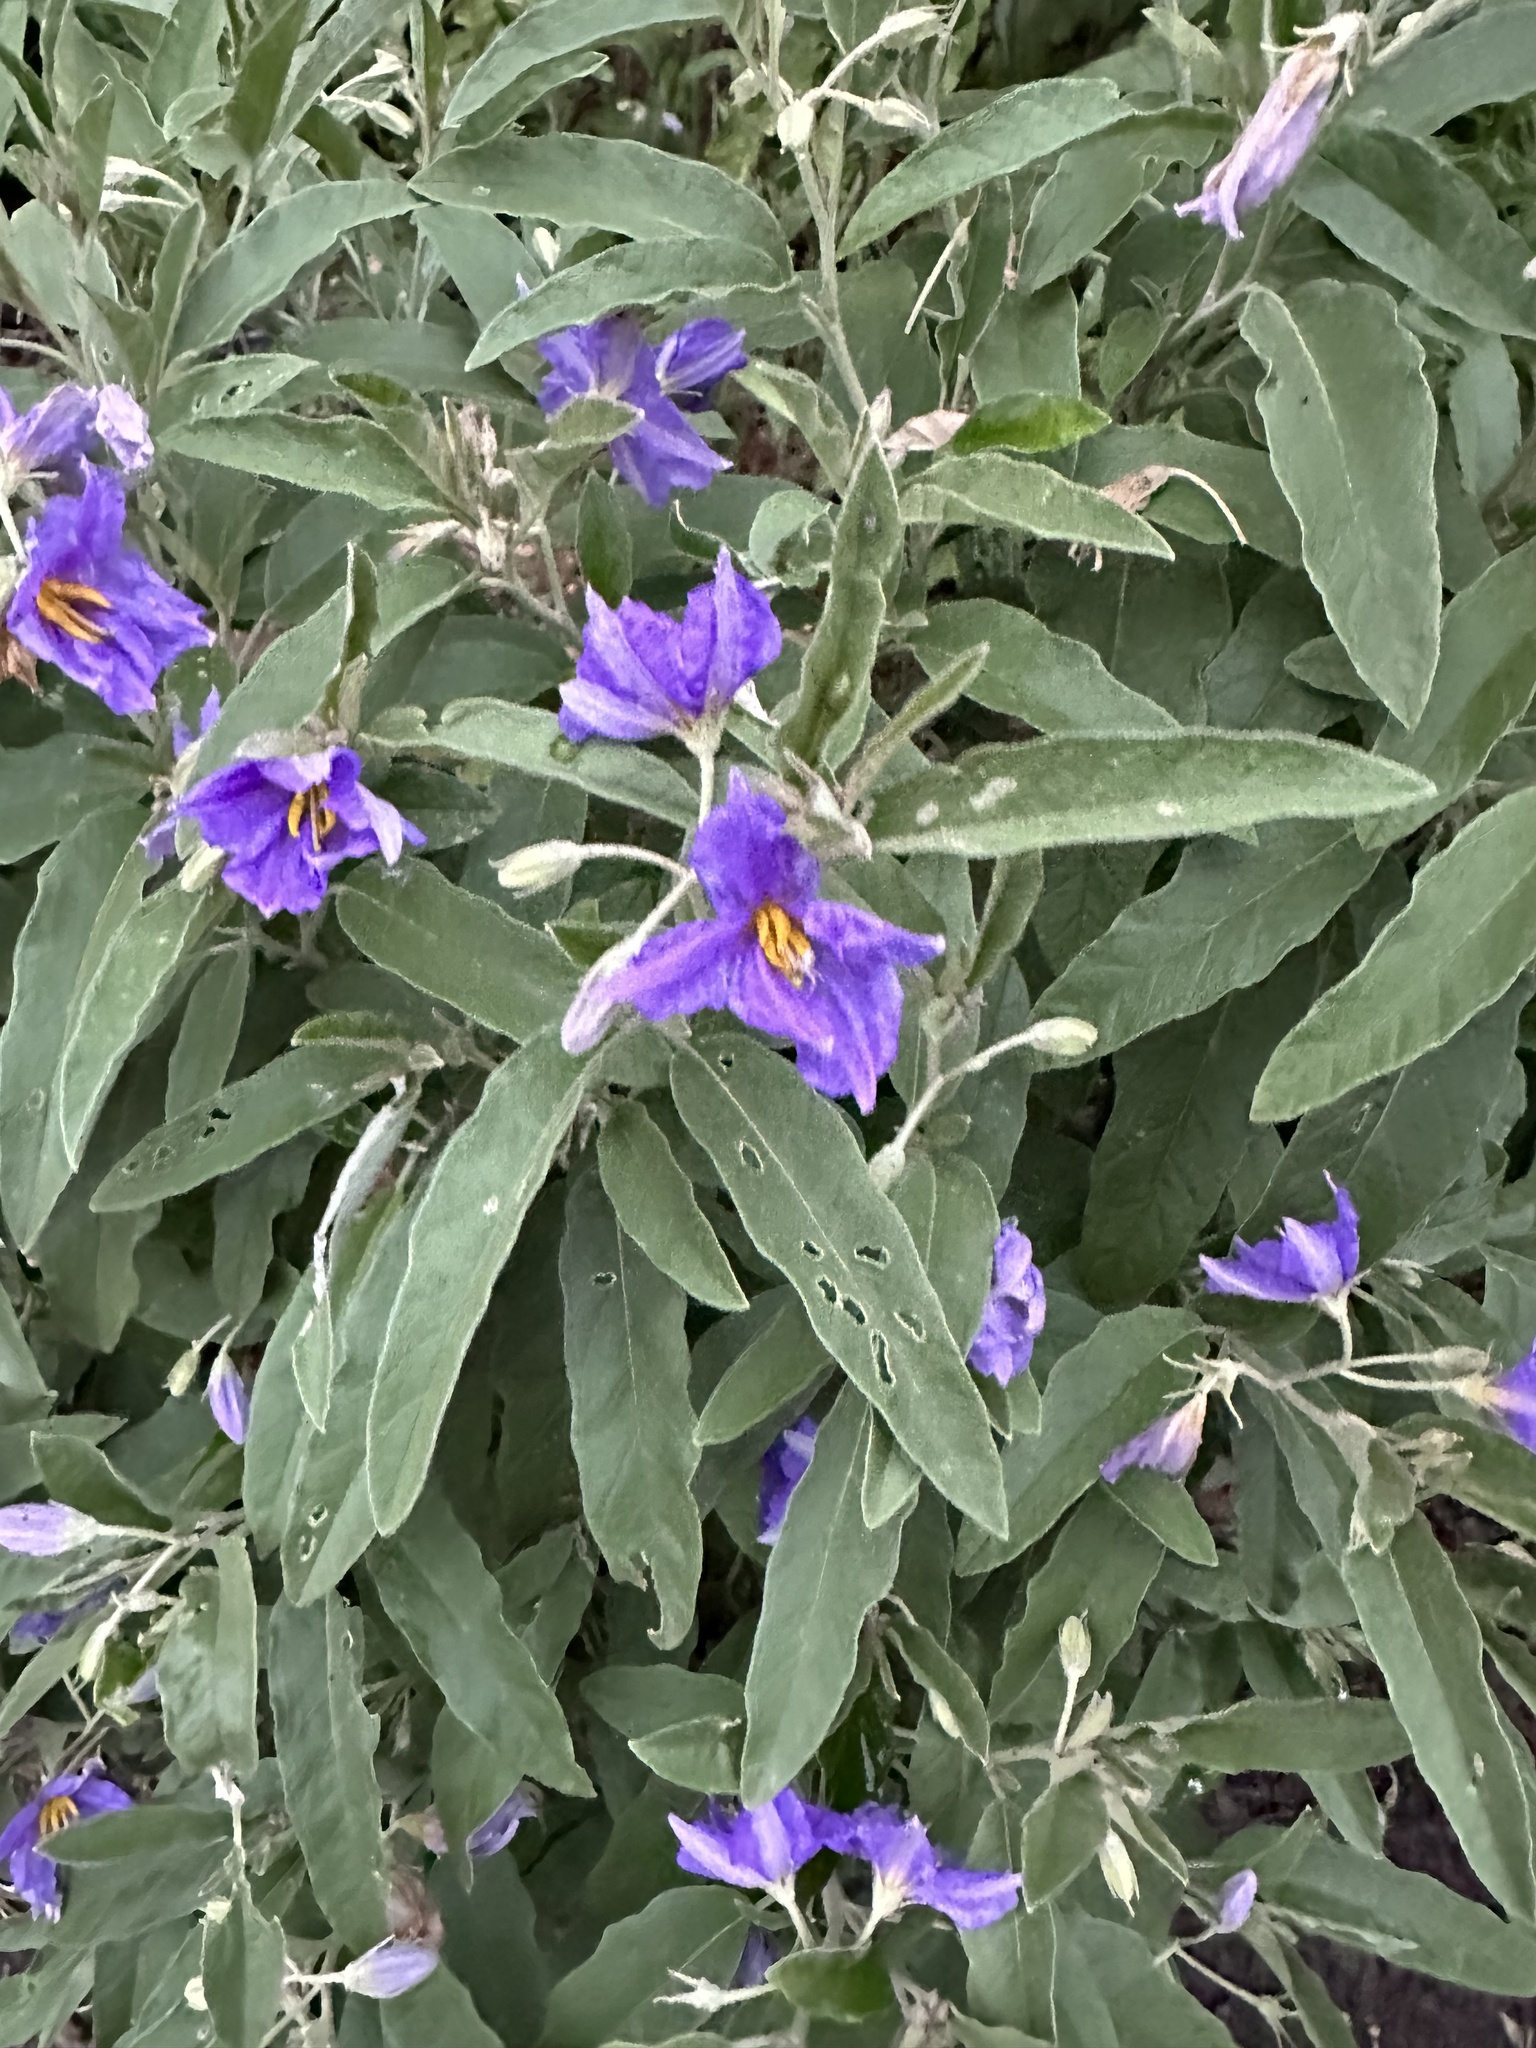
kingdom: Plantae
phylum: Tracheophyta
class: Magnoliopsida
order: Solanales
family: Solanaceae
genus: Solanum
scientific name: Solanum elaeagnifolium
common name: Silverleaf nightshade
